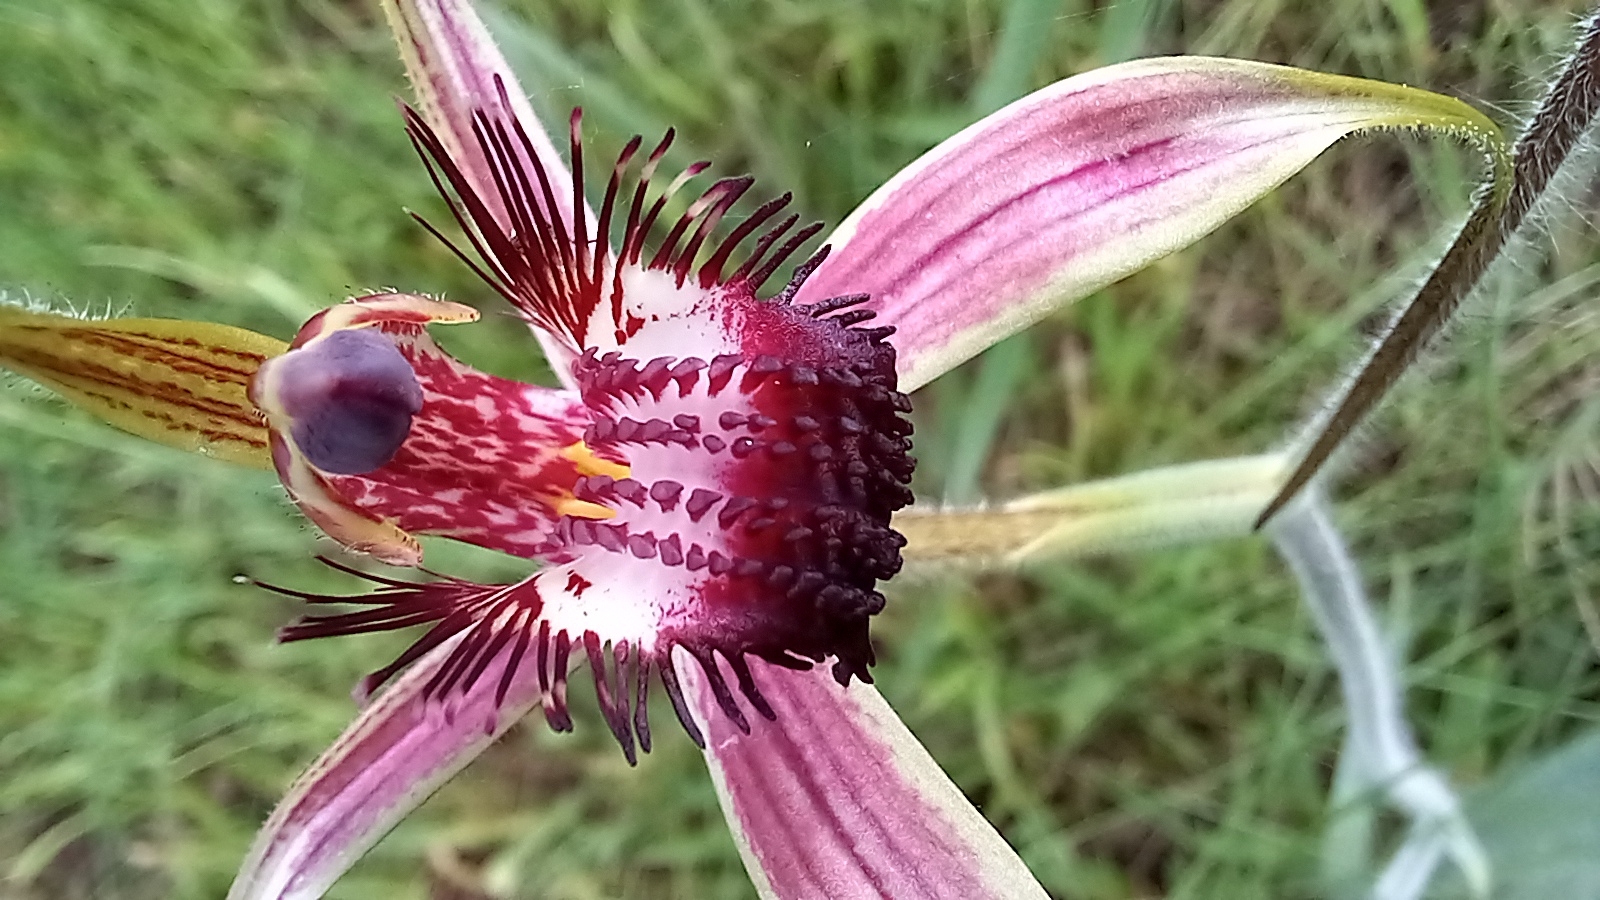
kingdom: Plantae
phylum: Tracheophyta
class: Liliopsida
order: Asparagales
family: Orchidaceae
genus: Caladenia
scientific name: Caladenia arenicola
